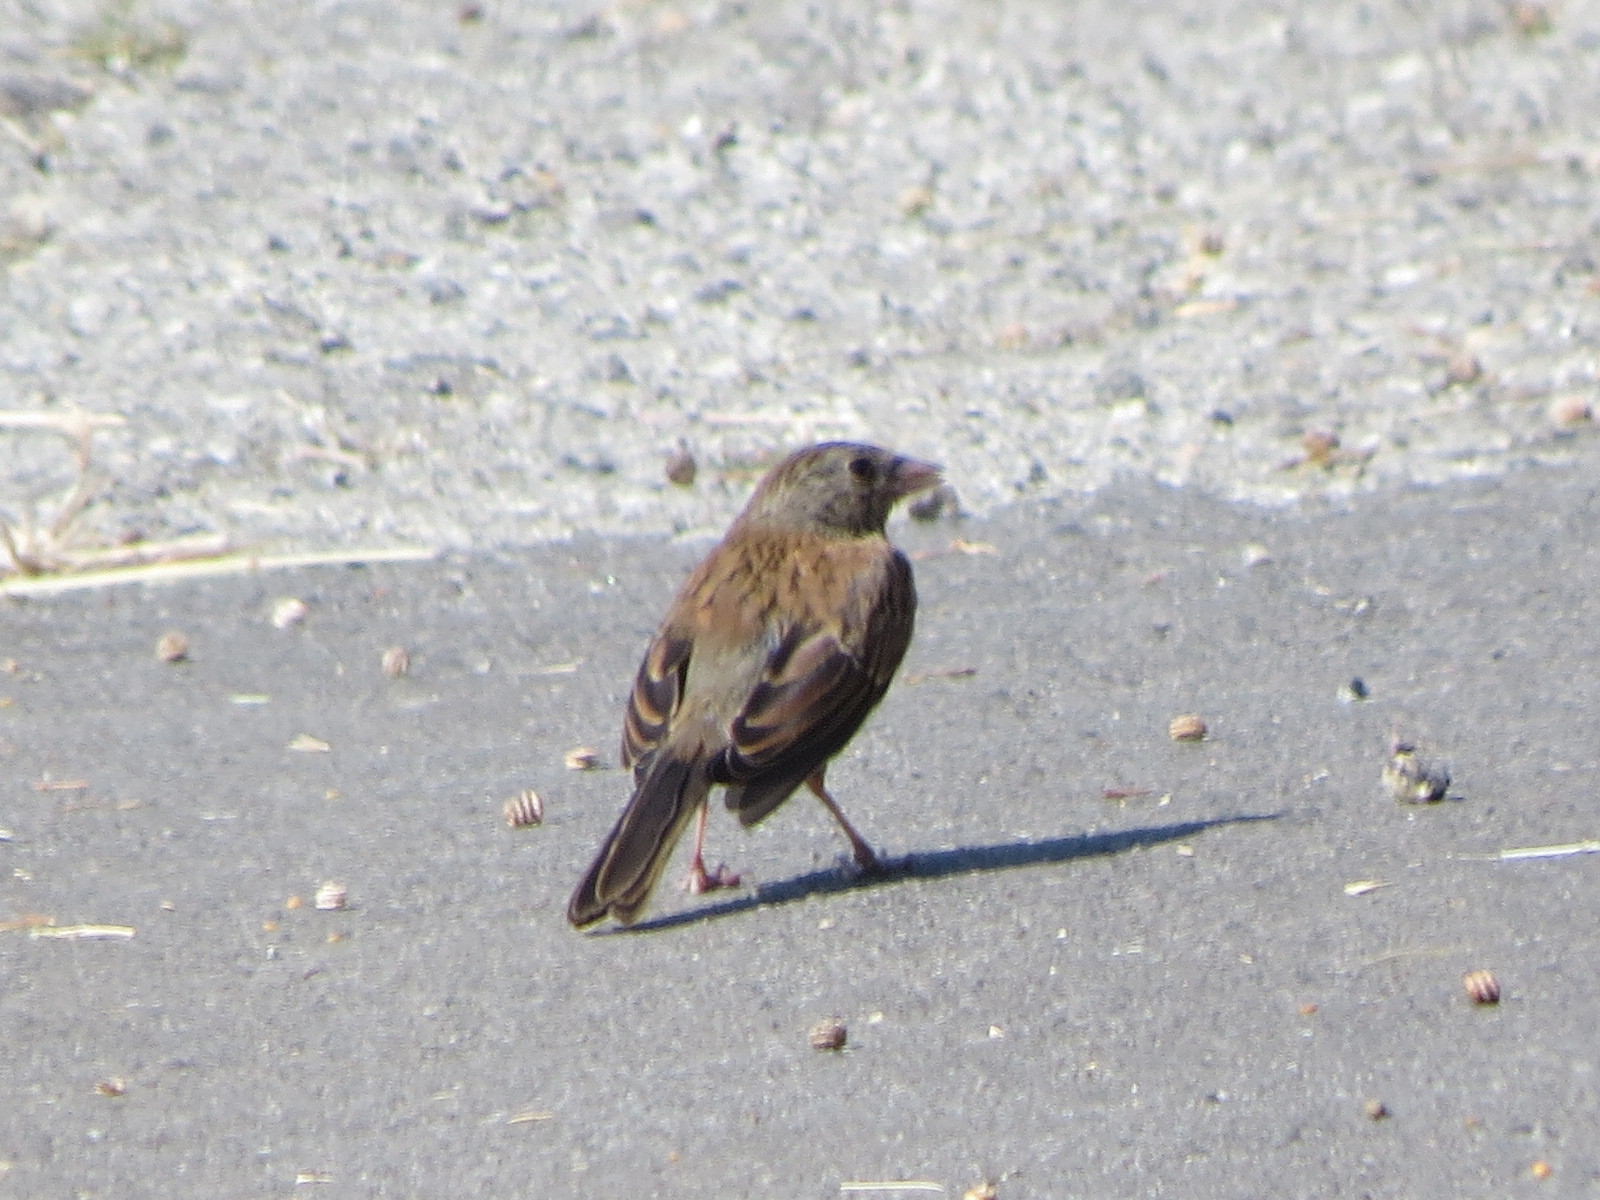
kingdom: Animalia
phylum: Chordata
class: Aves
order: Passeriformes
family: Passerellidae
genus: Junco
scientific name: Junco hyemalis
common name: Dark-eyed junco
